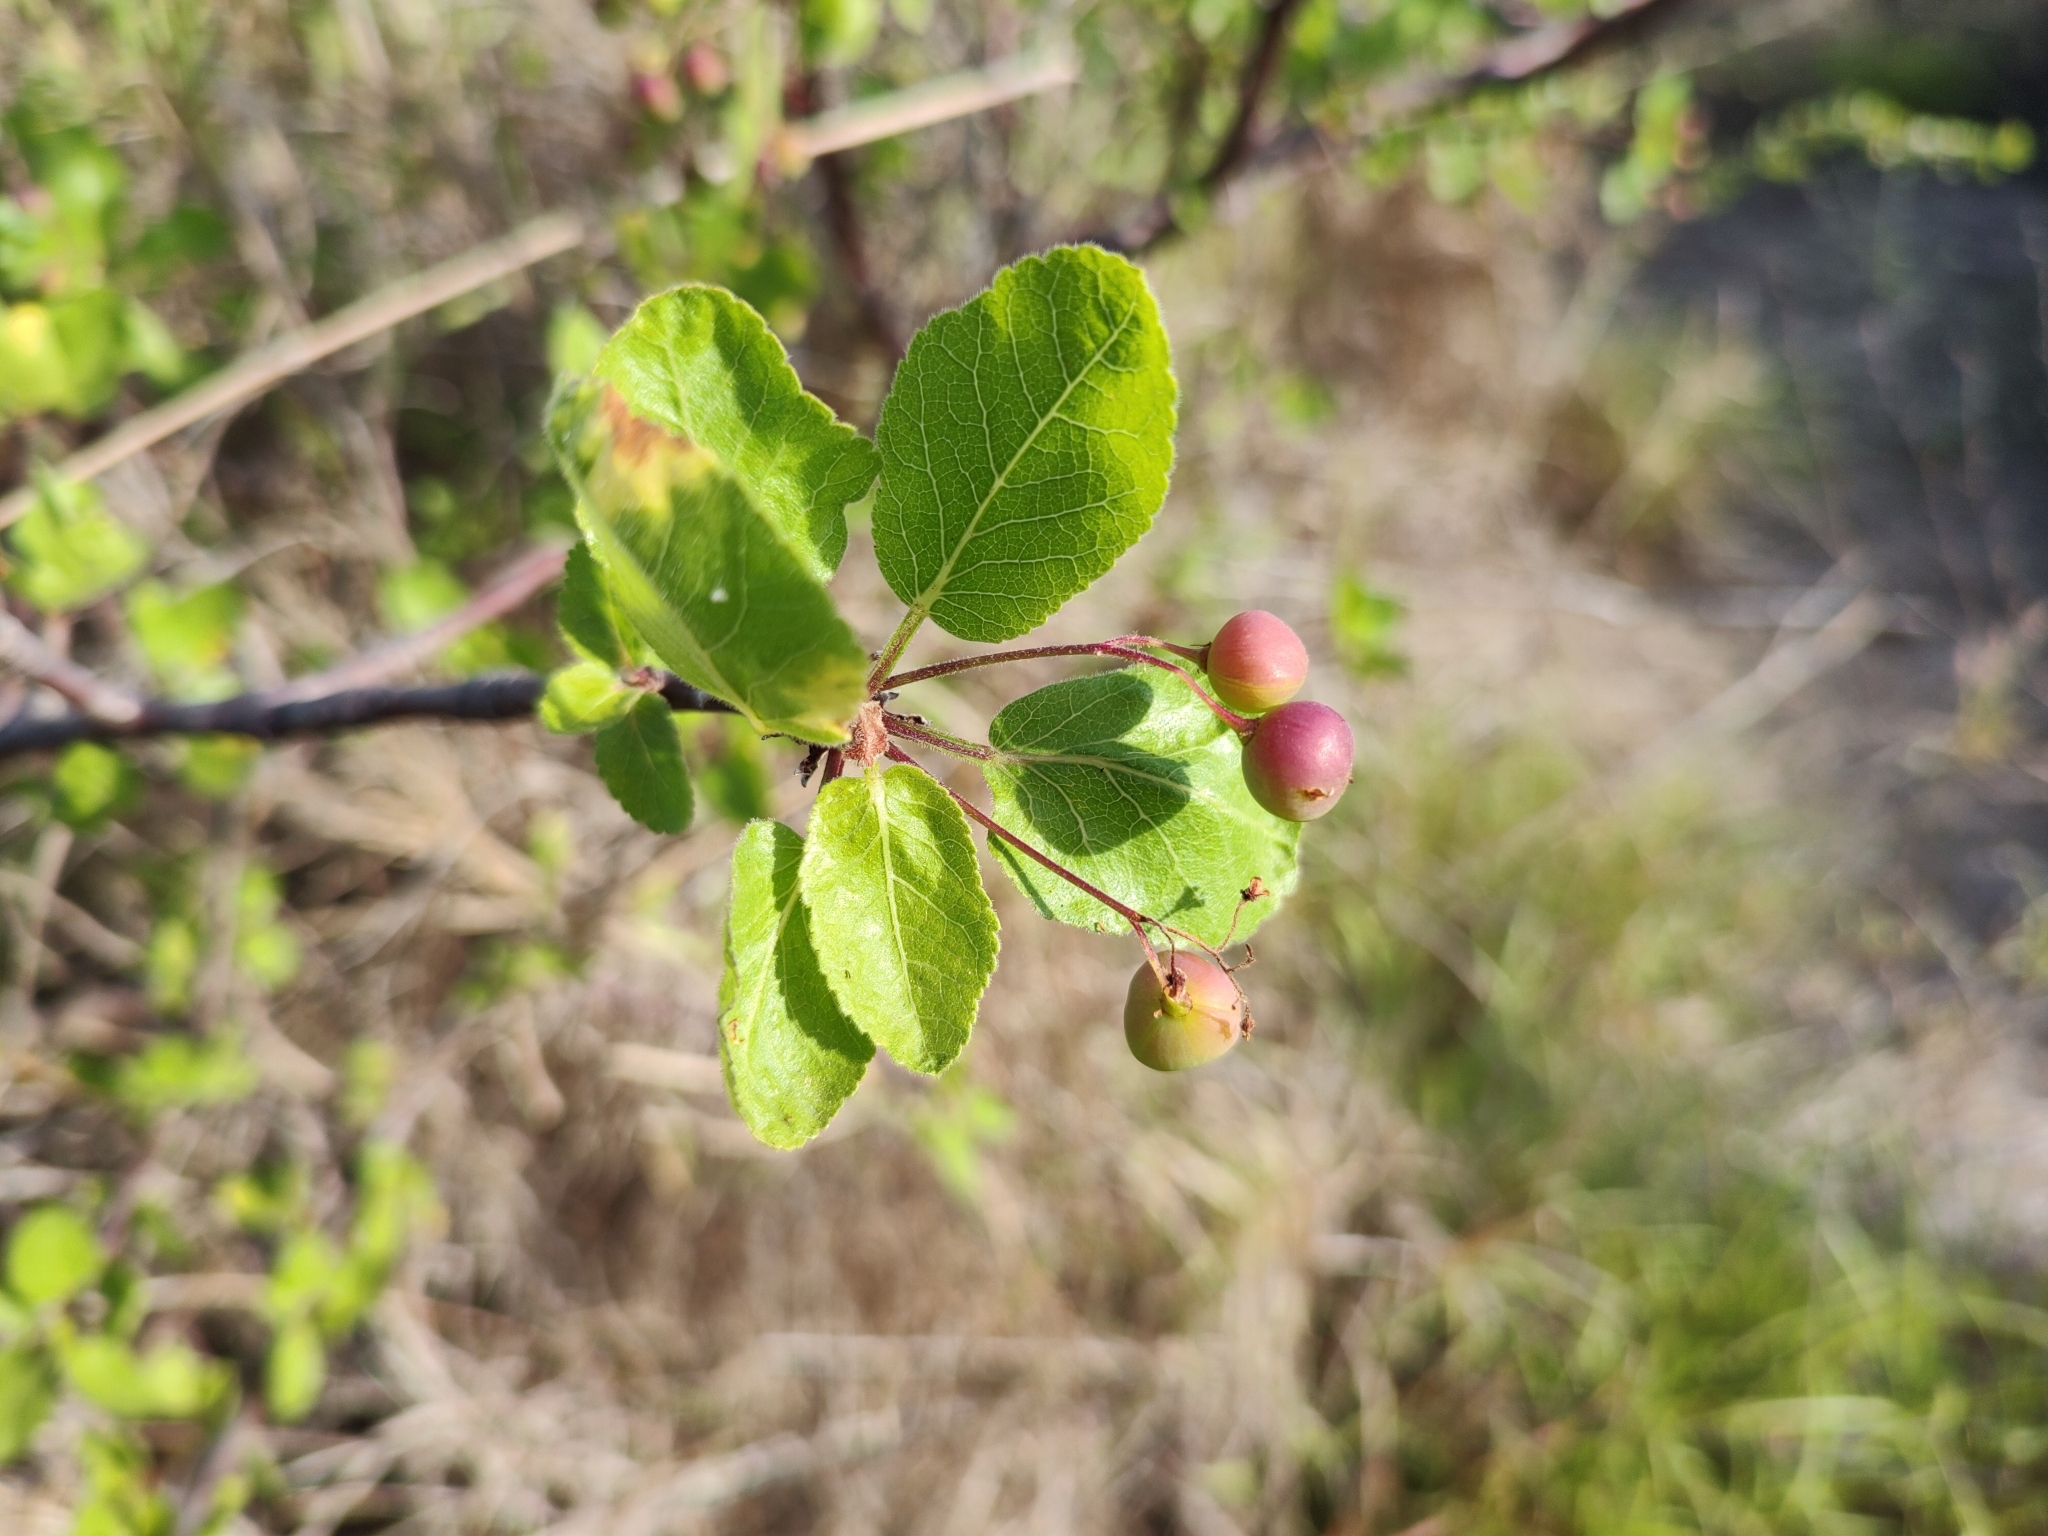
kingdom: Plantae
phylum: Tracheophyta
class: Magnoliopsida
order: Sapindales
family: Burseraceae
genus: Bursera
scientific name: Bursera epinnata
